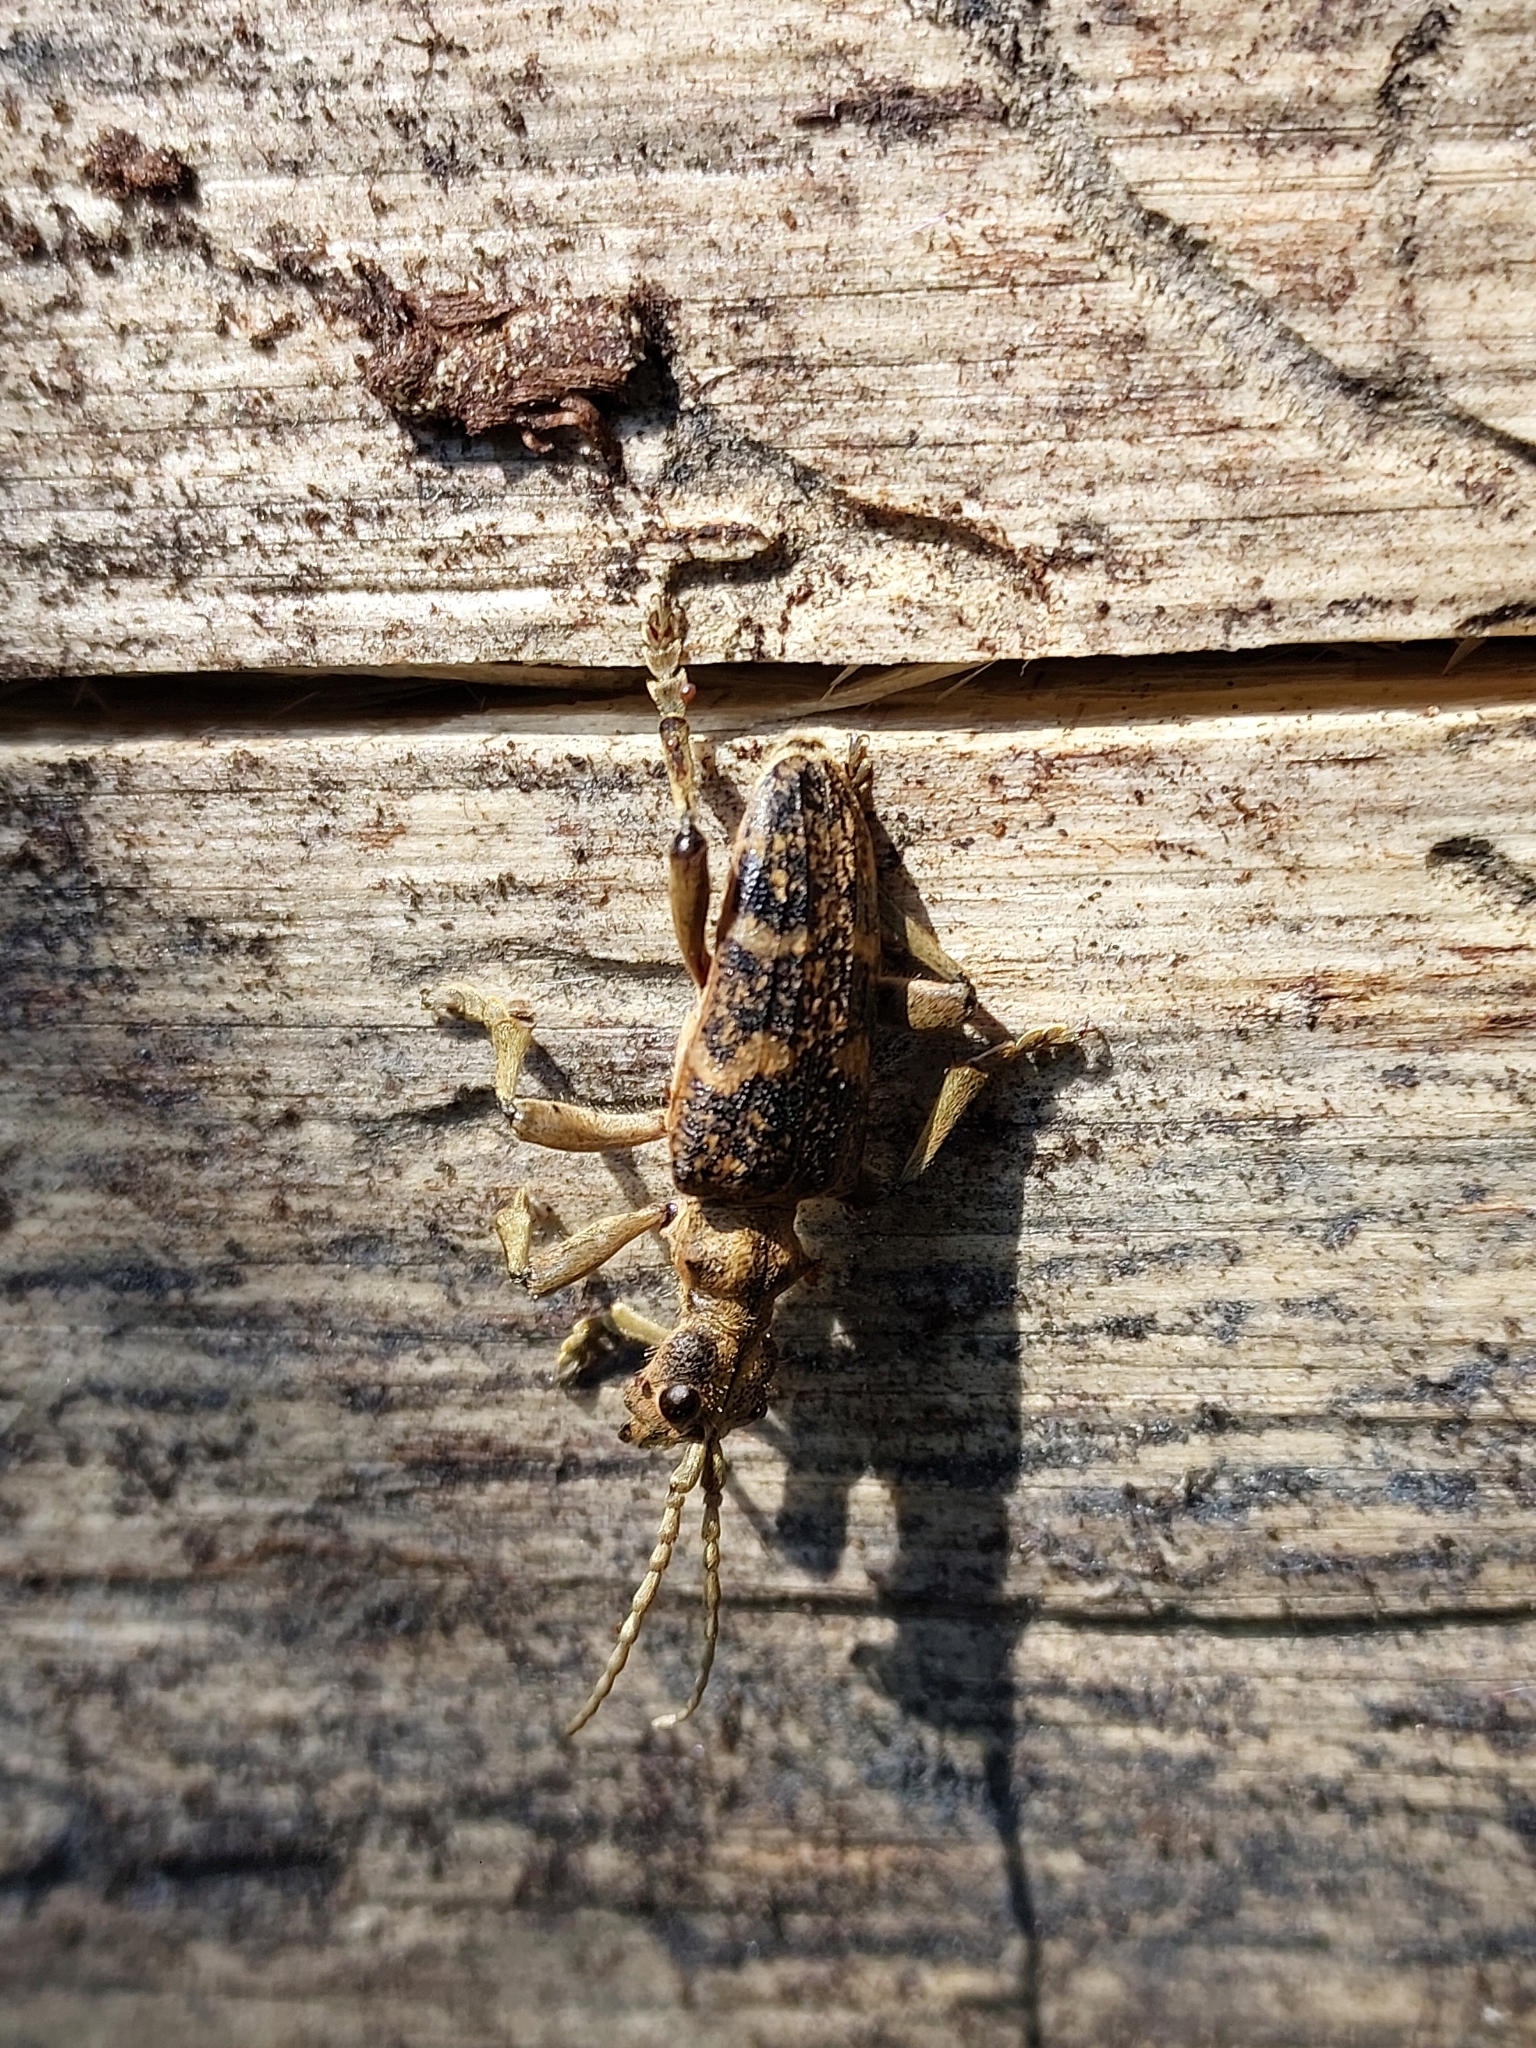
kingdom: Animalia
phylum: Arthropoda
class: Insecta
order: Coleoptera
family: Cerambycidae
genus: Rhagium
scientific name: Rhagium sycophanta
